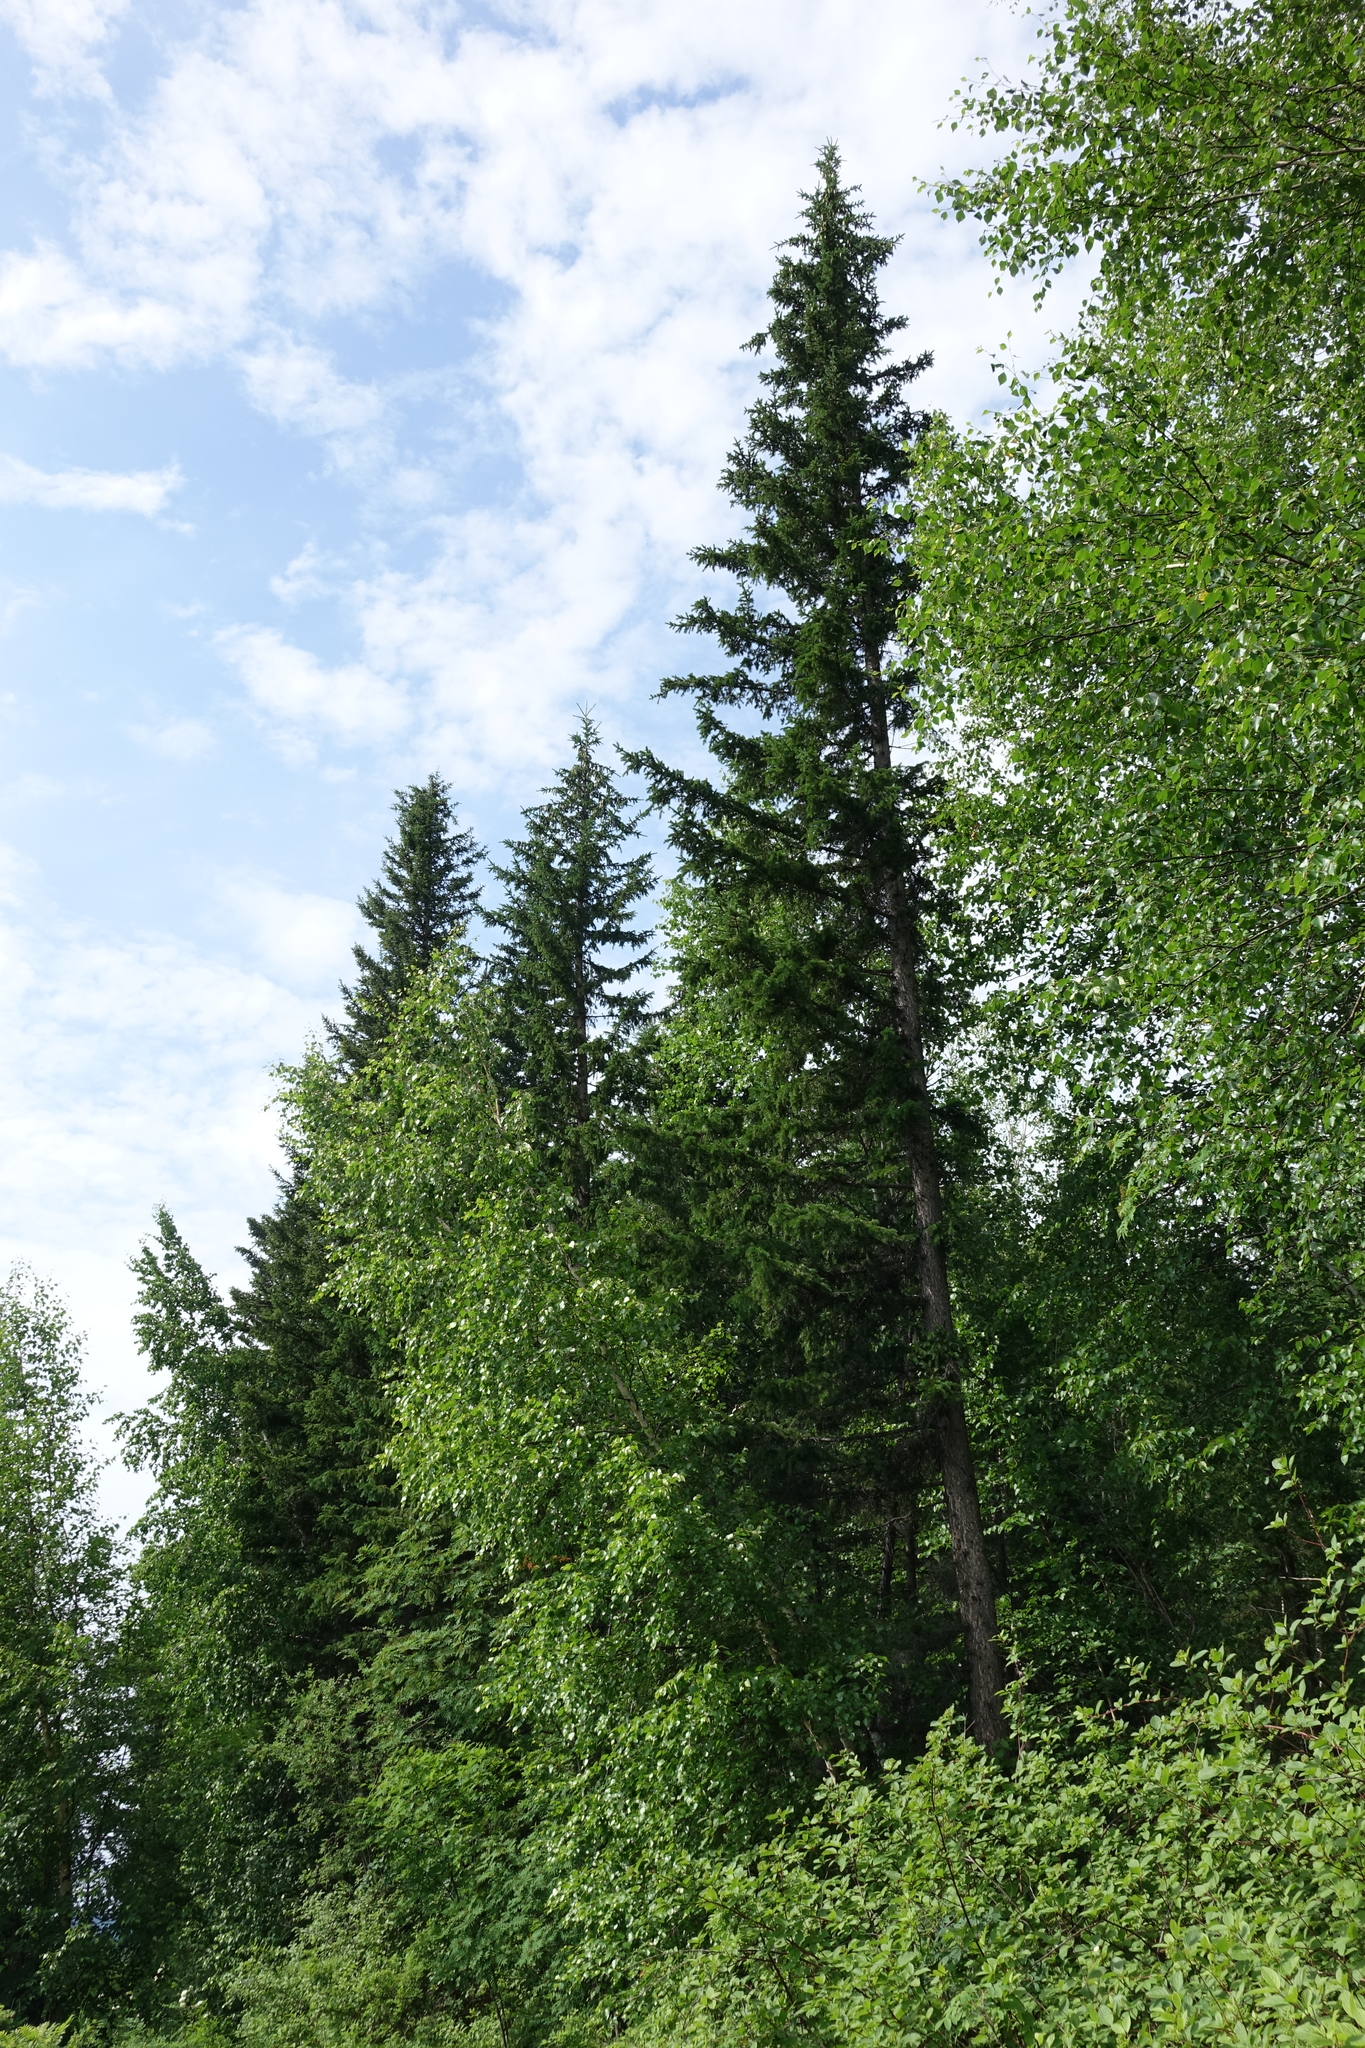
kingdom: Plantae
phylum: Tracheophyta
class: Pinopsida
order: Pinales
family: Pinaceae
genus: Picea
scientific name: Picea obovata
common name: Siberian spruce
